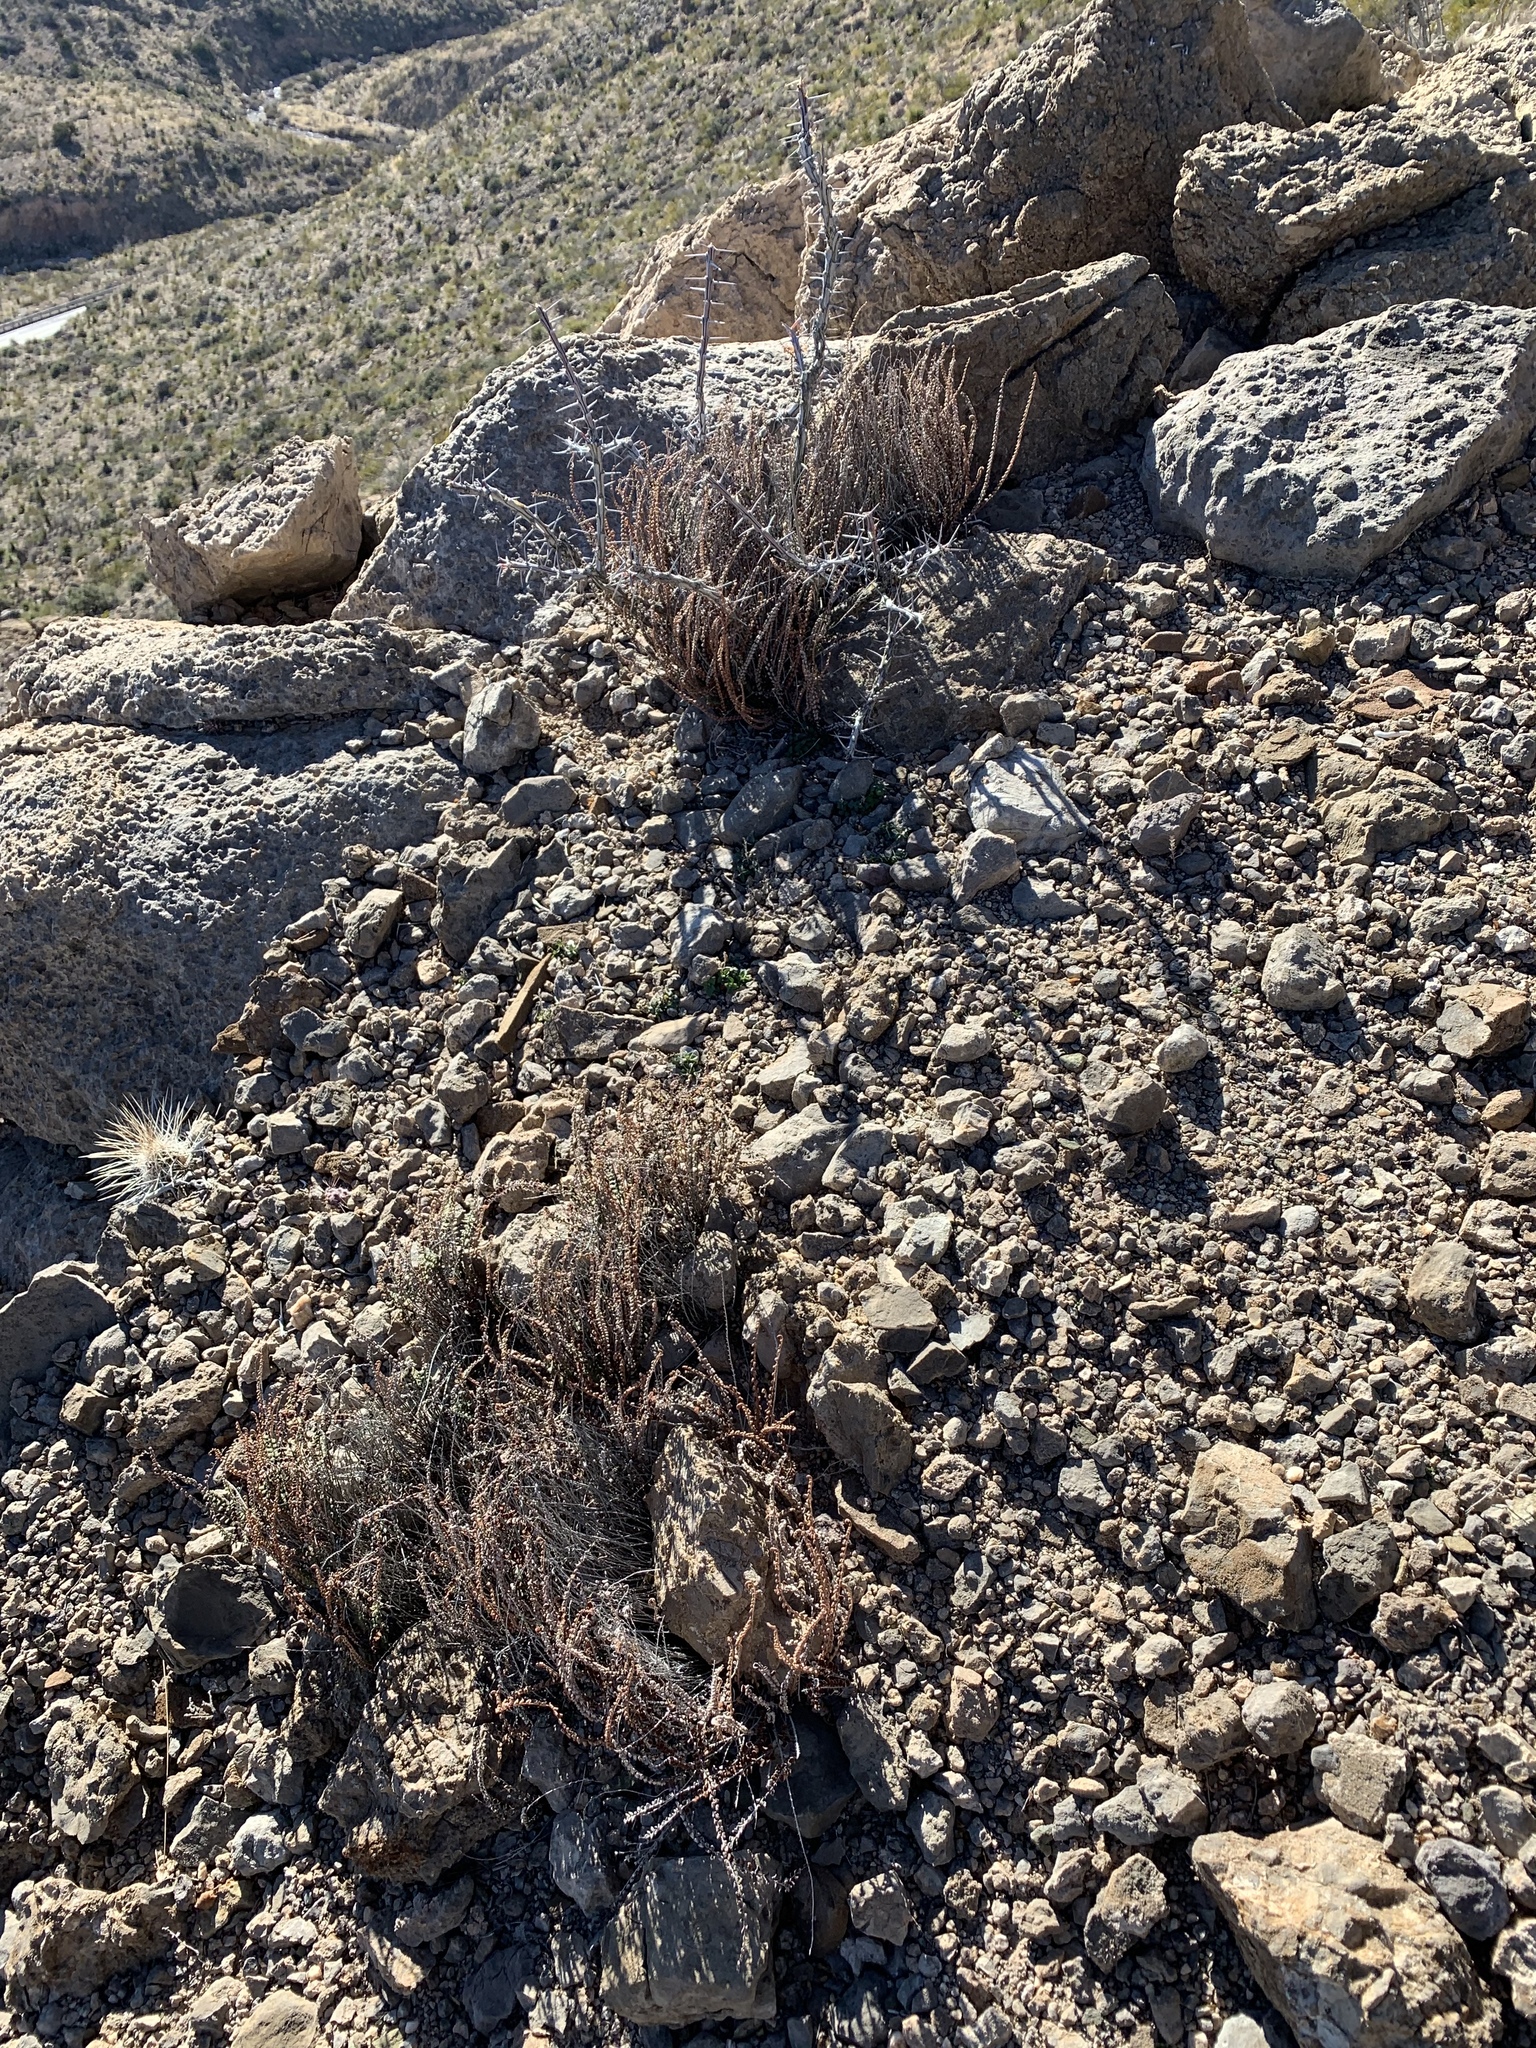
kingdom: Plantae
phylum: Tracheophyta
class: Polypodiopsida
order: Polypodiales
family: Pteridaceae
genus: Astrolepis
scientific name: Astrolepis cochisensis
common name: Scaly cloak fern
